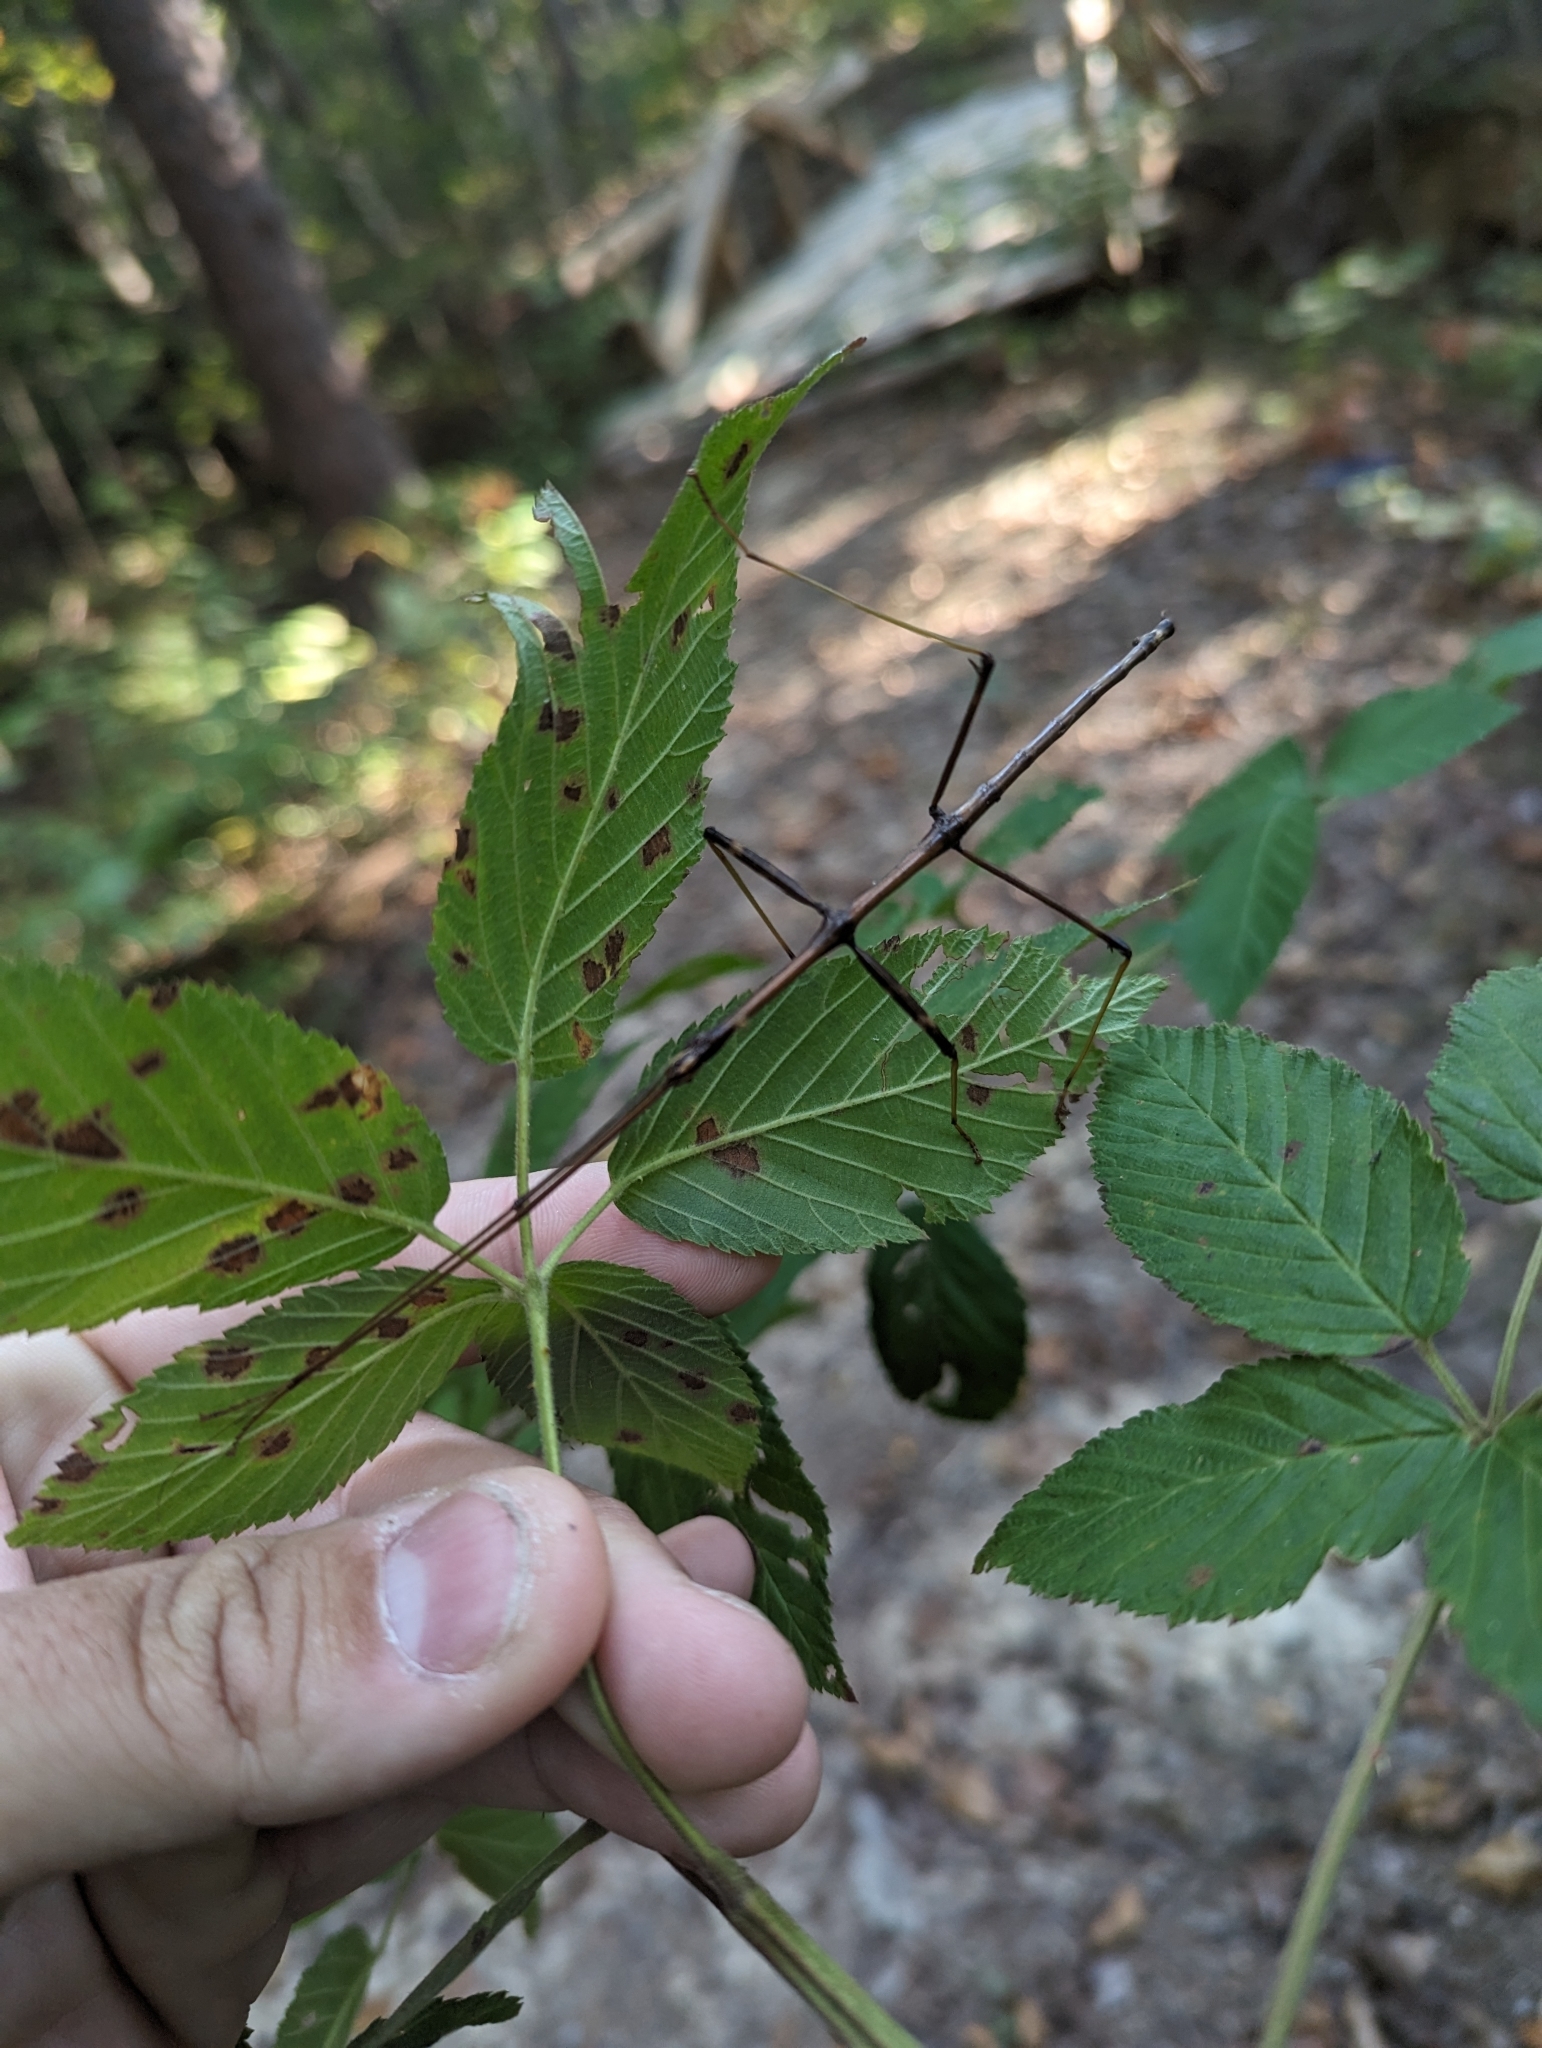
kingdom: Animalia
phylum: Arthropoda
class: Insecta
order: Phasmida
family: Diapheromeridae
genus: Diapheromera
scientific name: Diapheromera femorata
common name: Common american walkingstick
